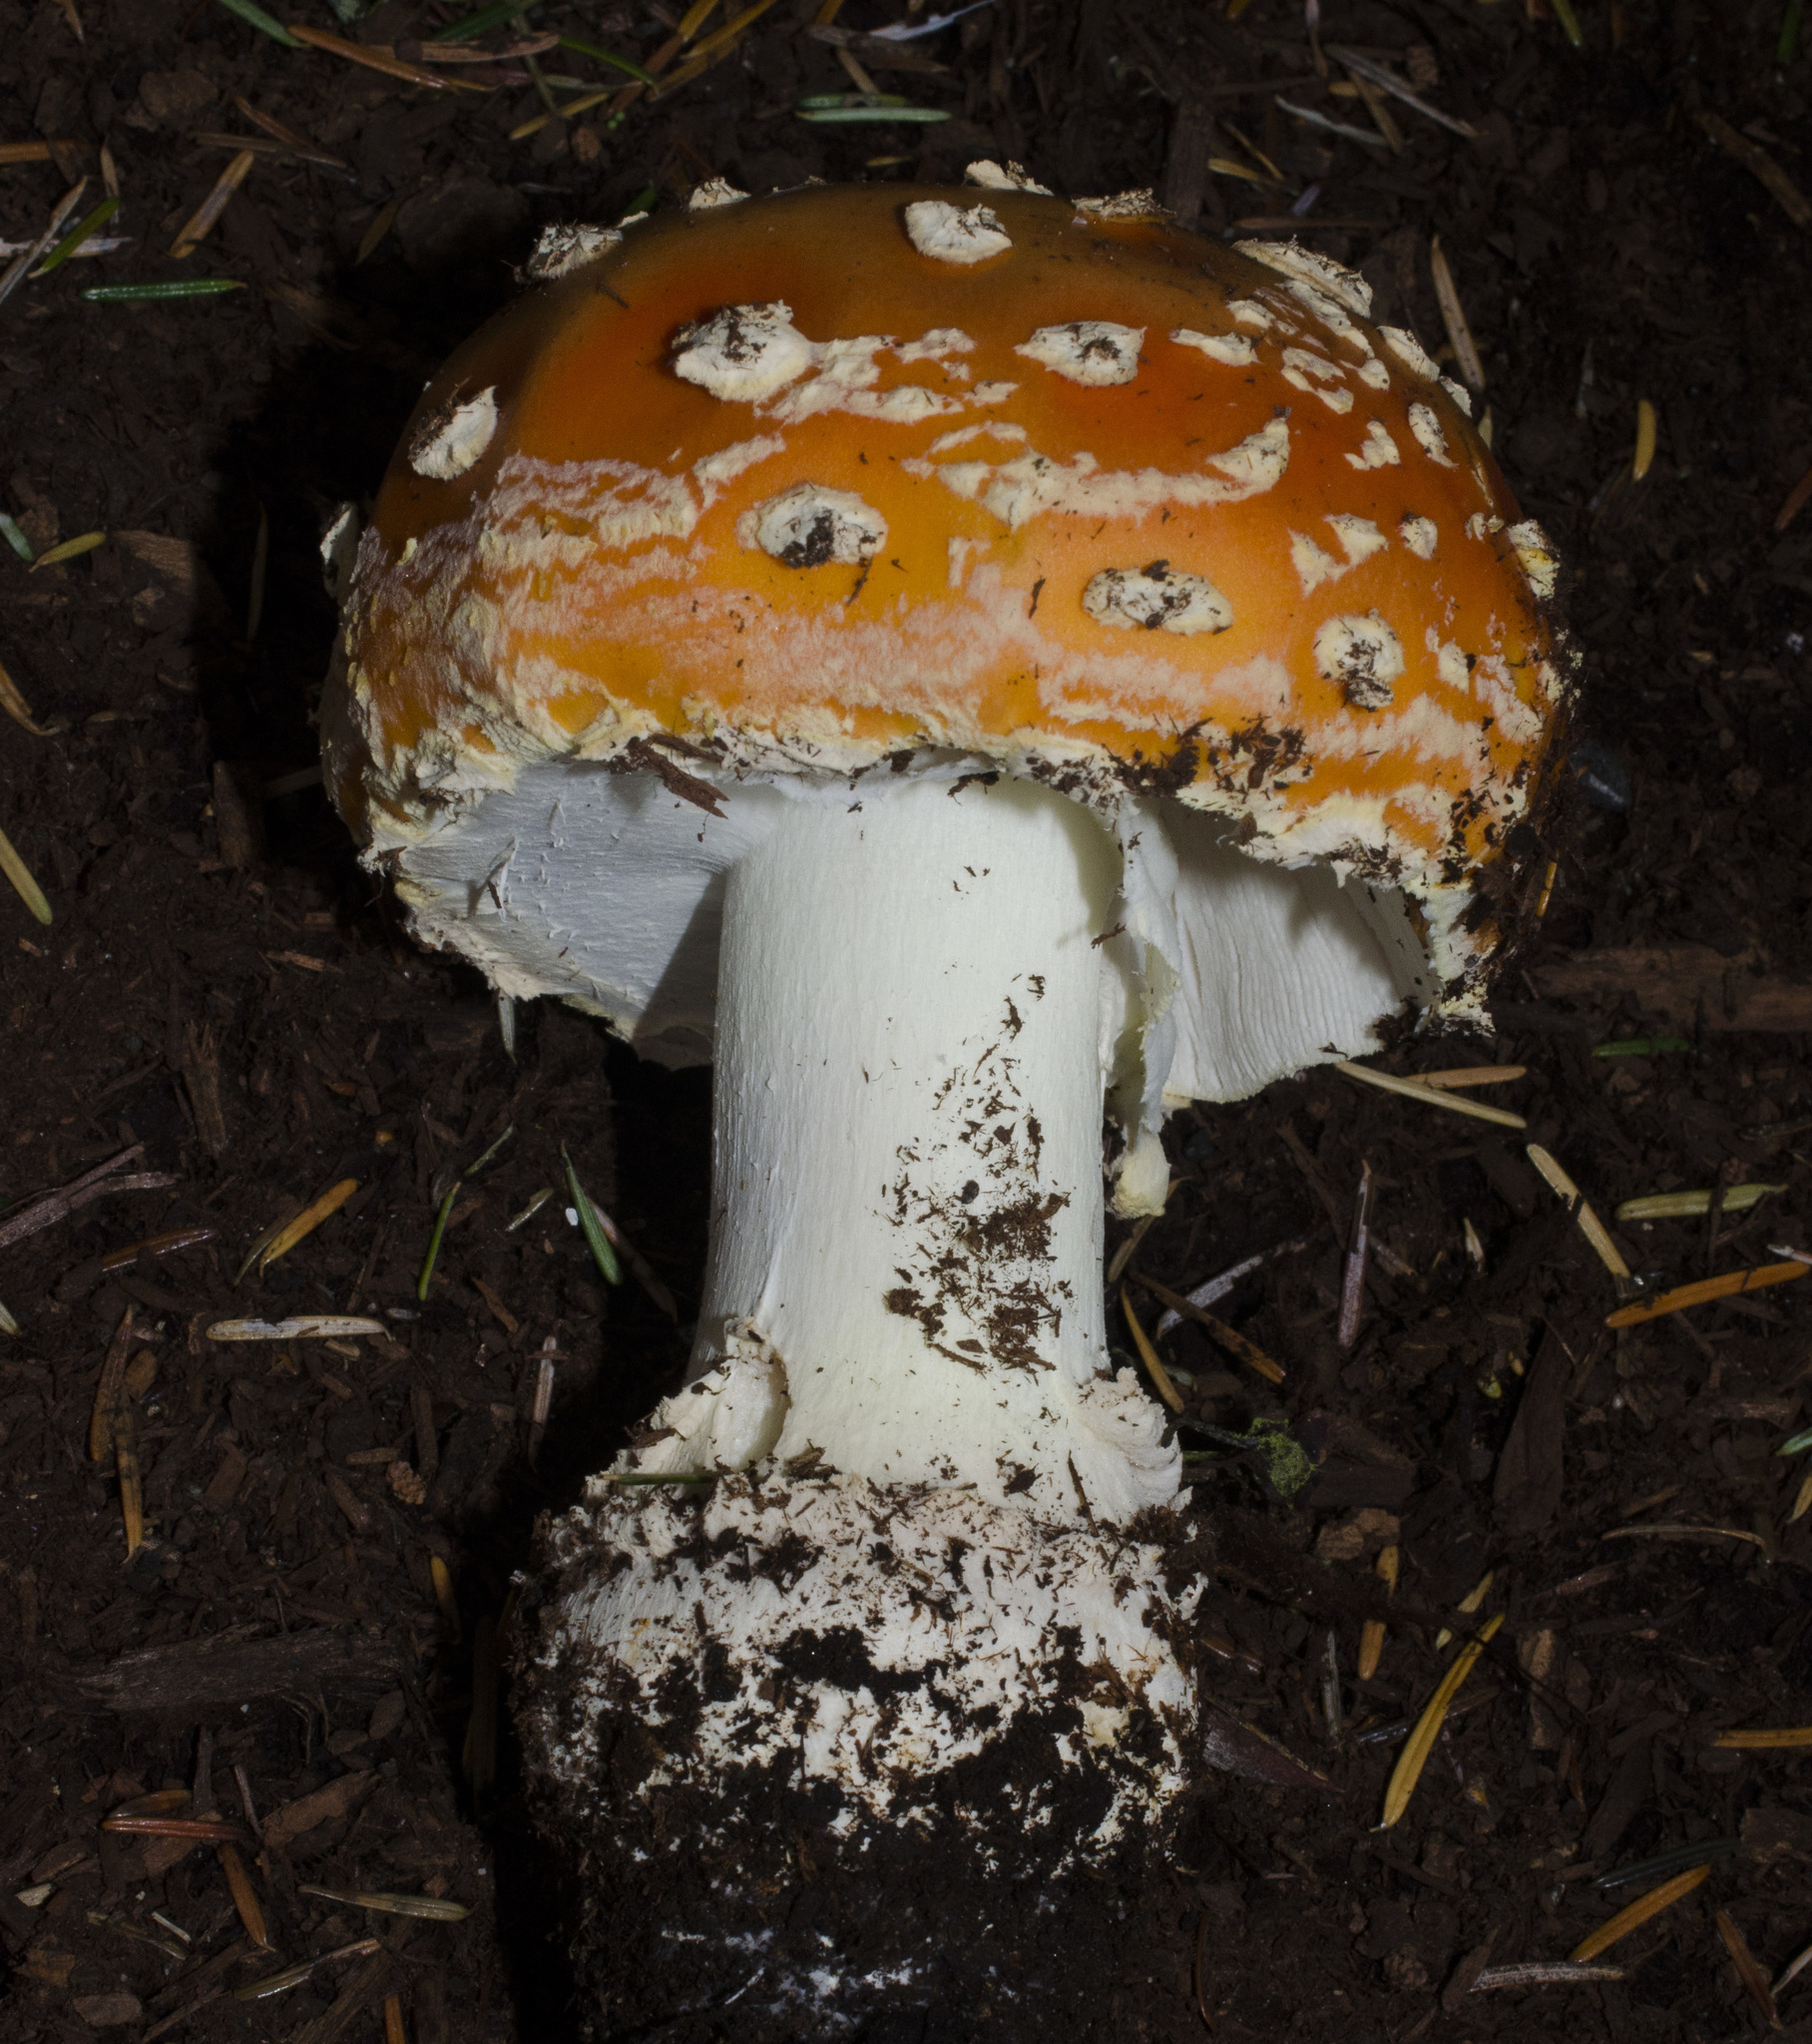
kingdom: Fungi
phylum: Basidiomycota
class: Agaricomycetes
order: Agaricales
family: Amanitaceae
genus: Amanita
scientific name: Amanita muscaria
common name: Fly agaric
